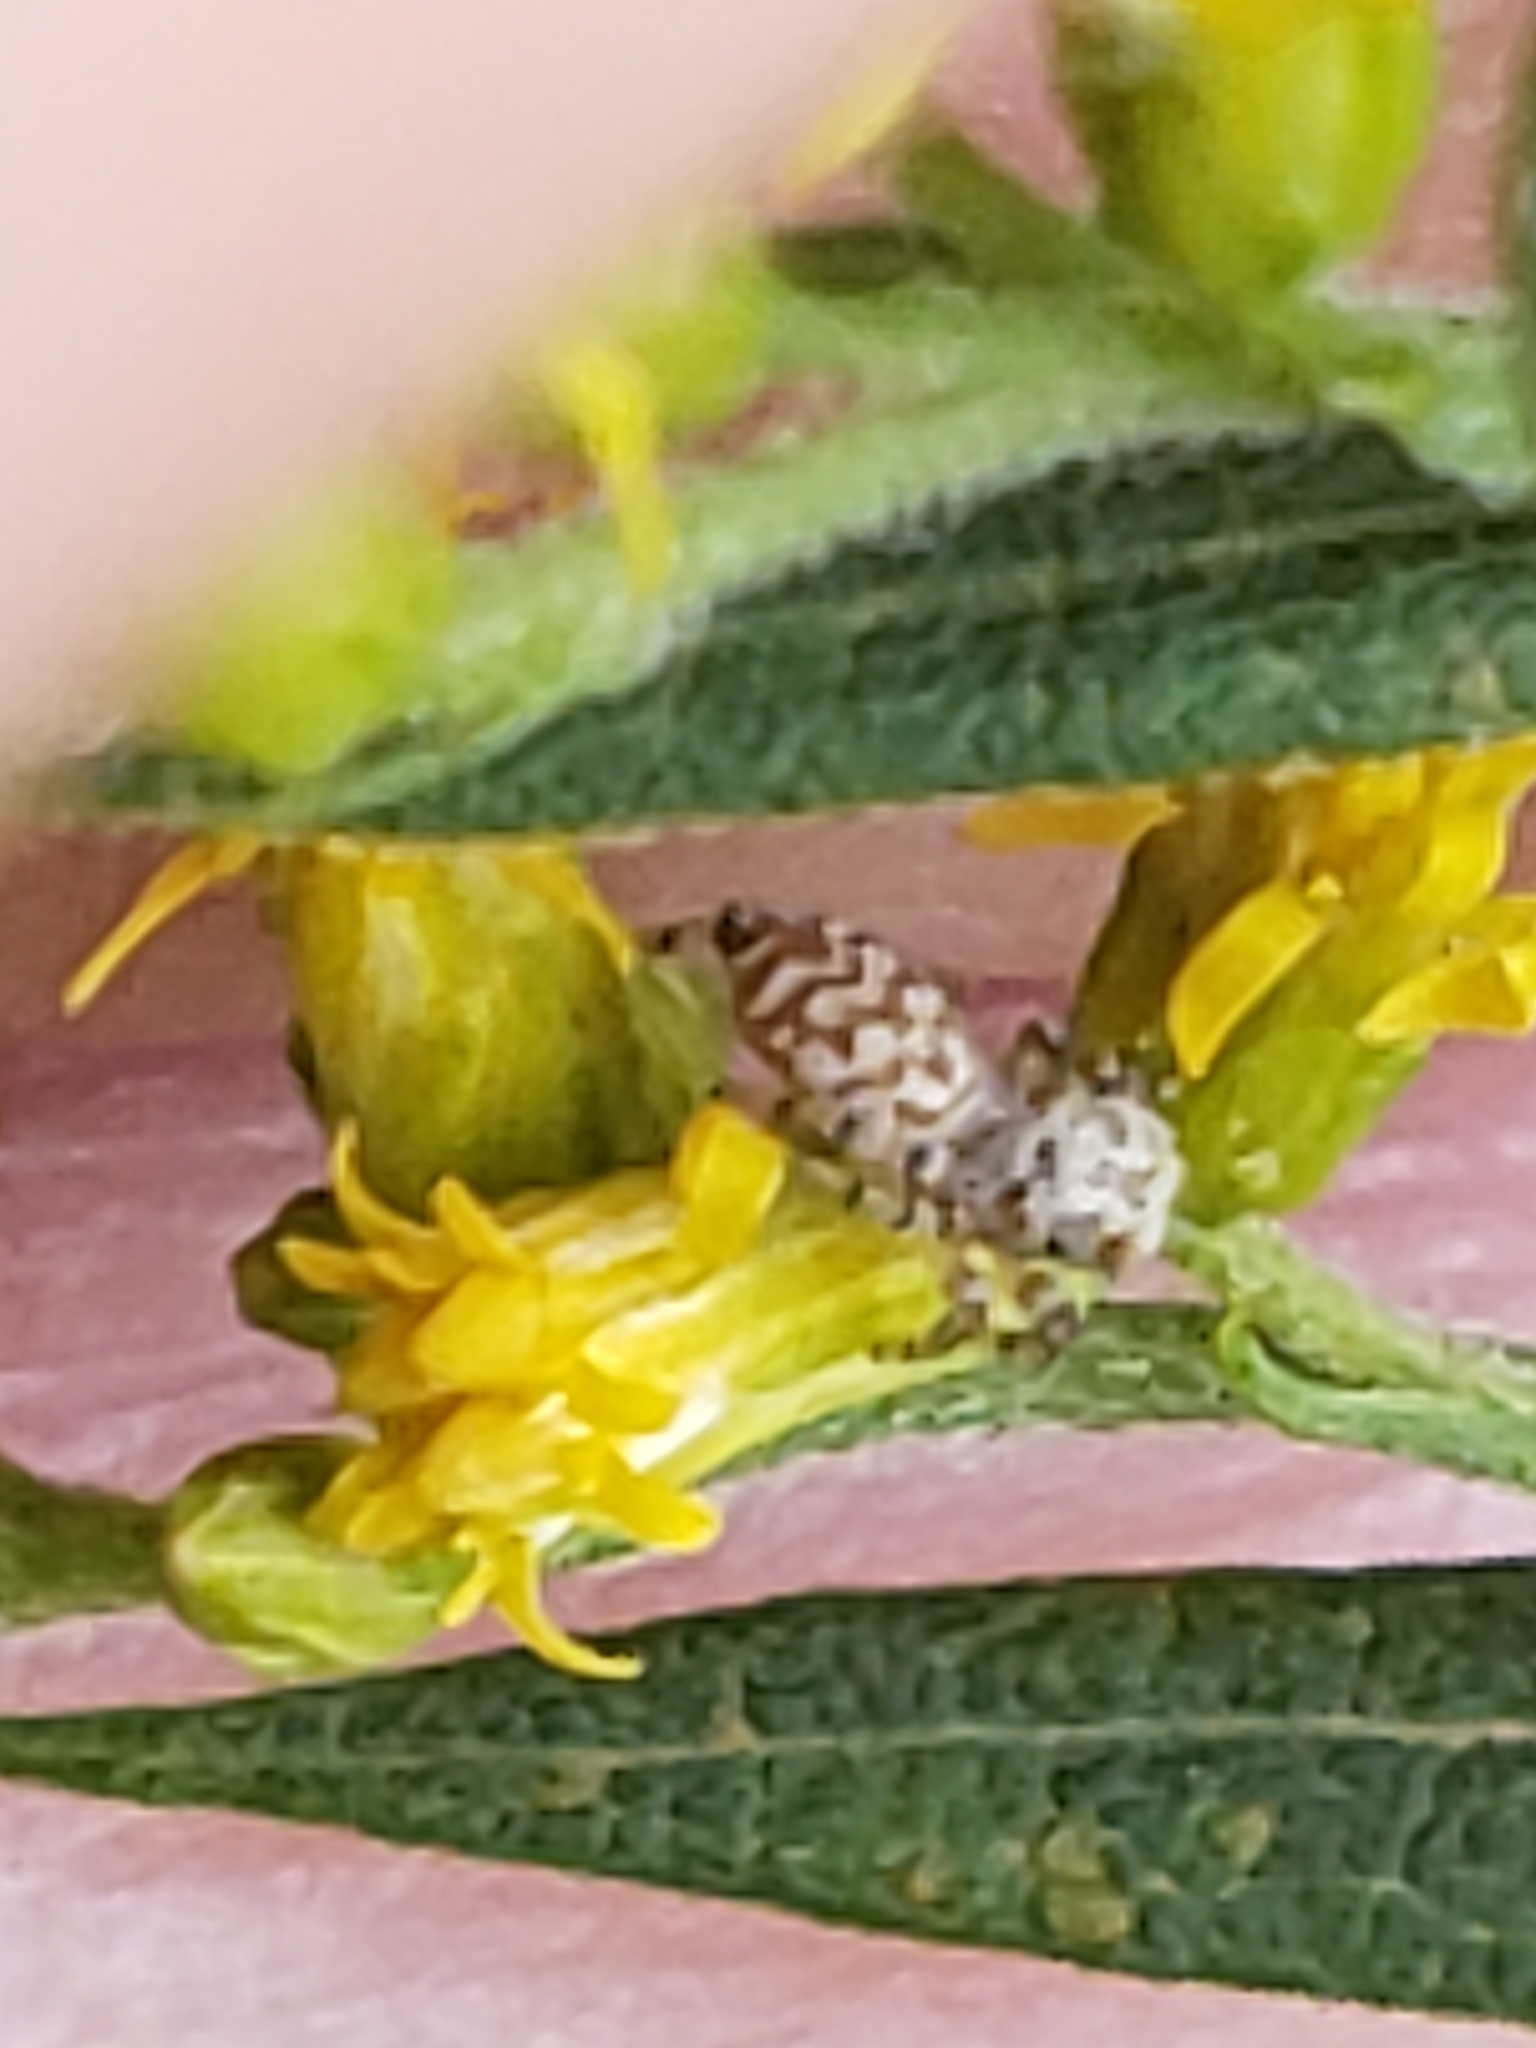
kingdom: Animalia
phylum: Arthropoda
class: Arachnida
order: Araneae
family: Salticidae
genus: Pelegrina
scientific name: Pelegrina galathea
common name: Jumping spiders
